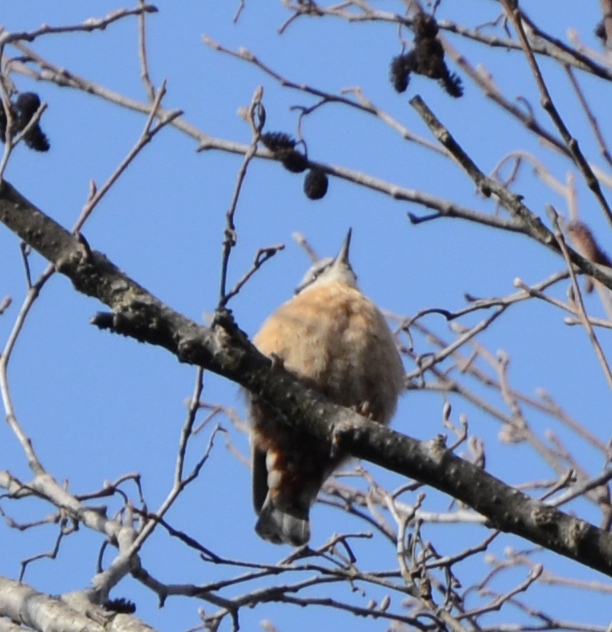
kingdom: Animalia
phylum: Chordata
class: Aves
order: Passeriformes
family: Sittidae
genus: Sitta
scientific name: Sitta europaea
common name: Eurasian nuthatch
